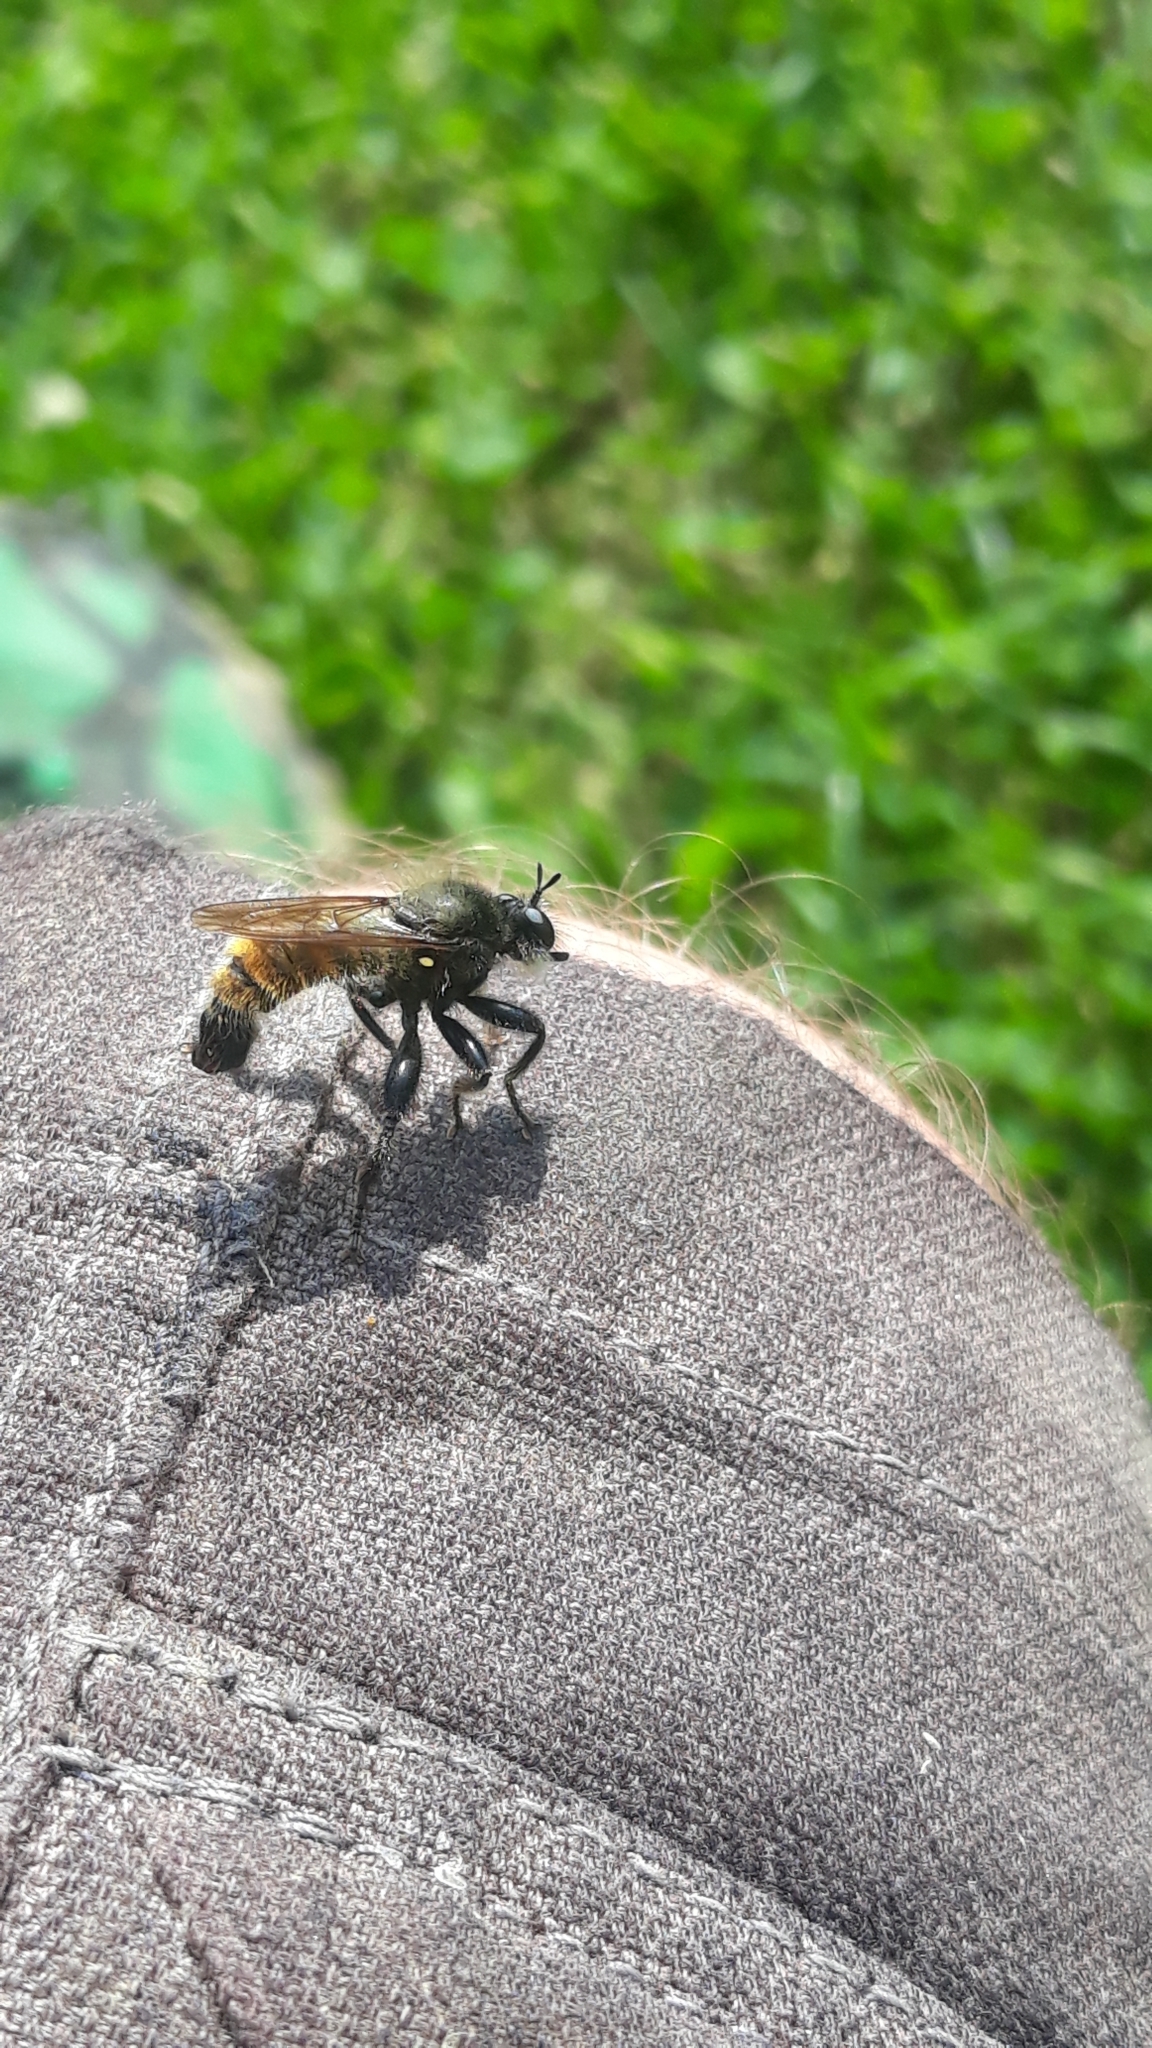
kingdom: Animalia
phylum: Arthropoda
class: Insecta
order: Diptera
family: Asilidae
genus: Laphria
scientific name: Laphria flava
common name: Bumblebee robberfly
